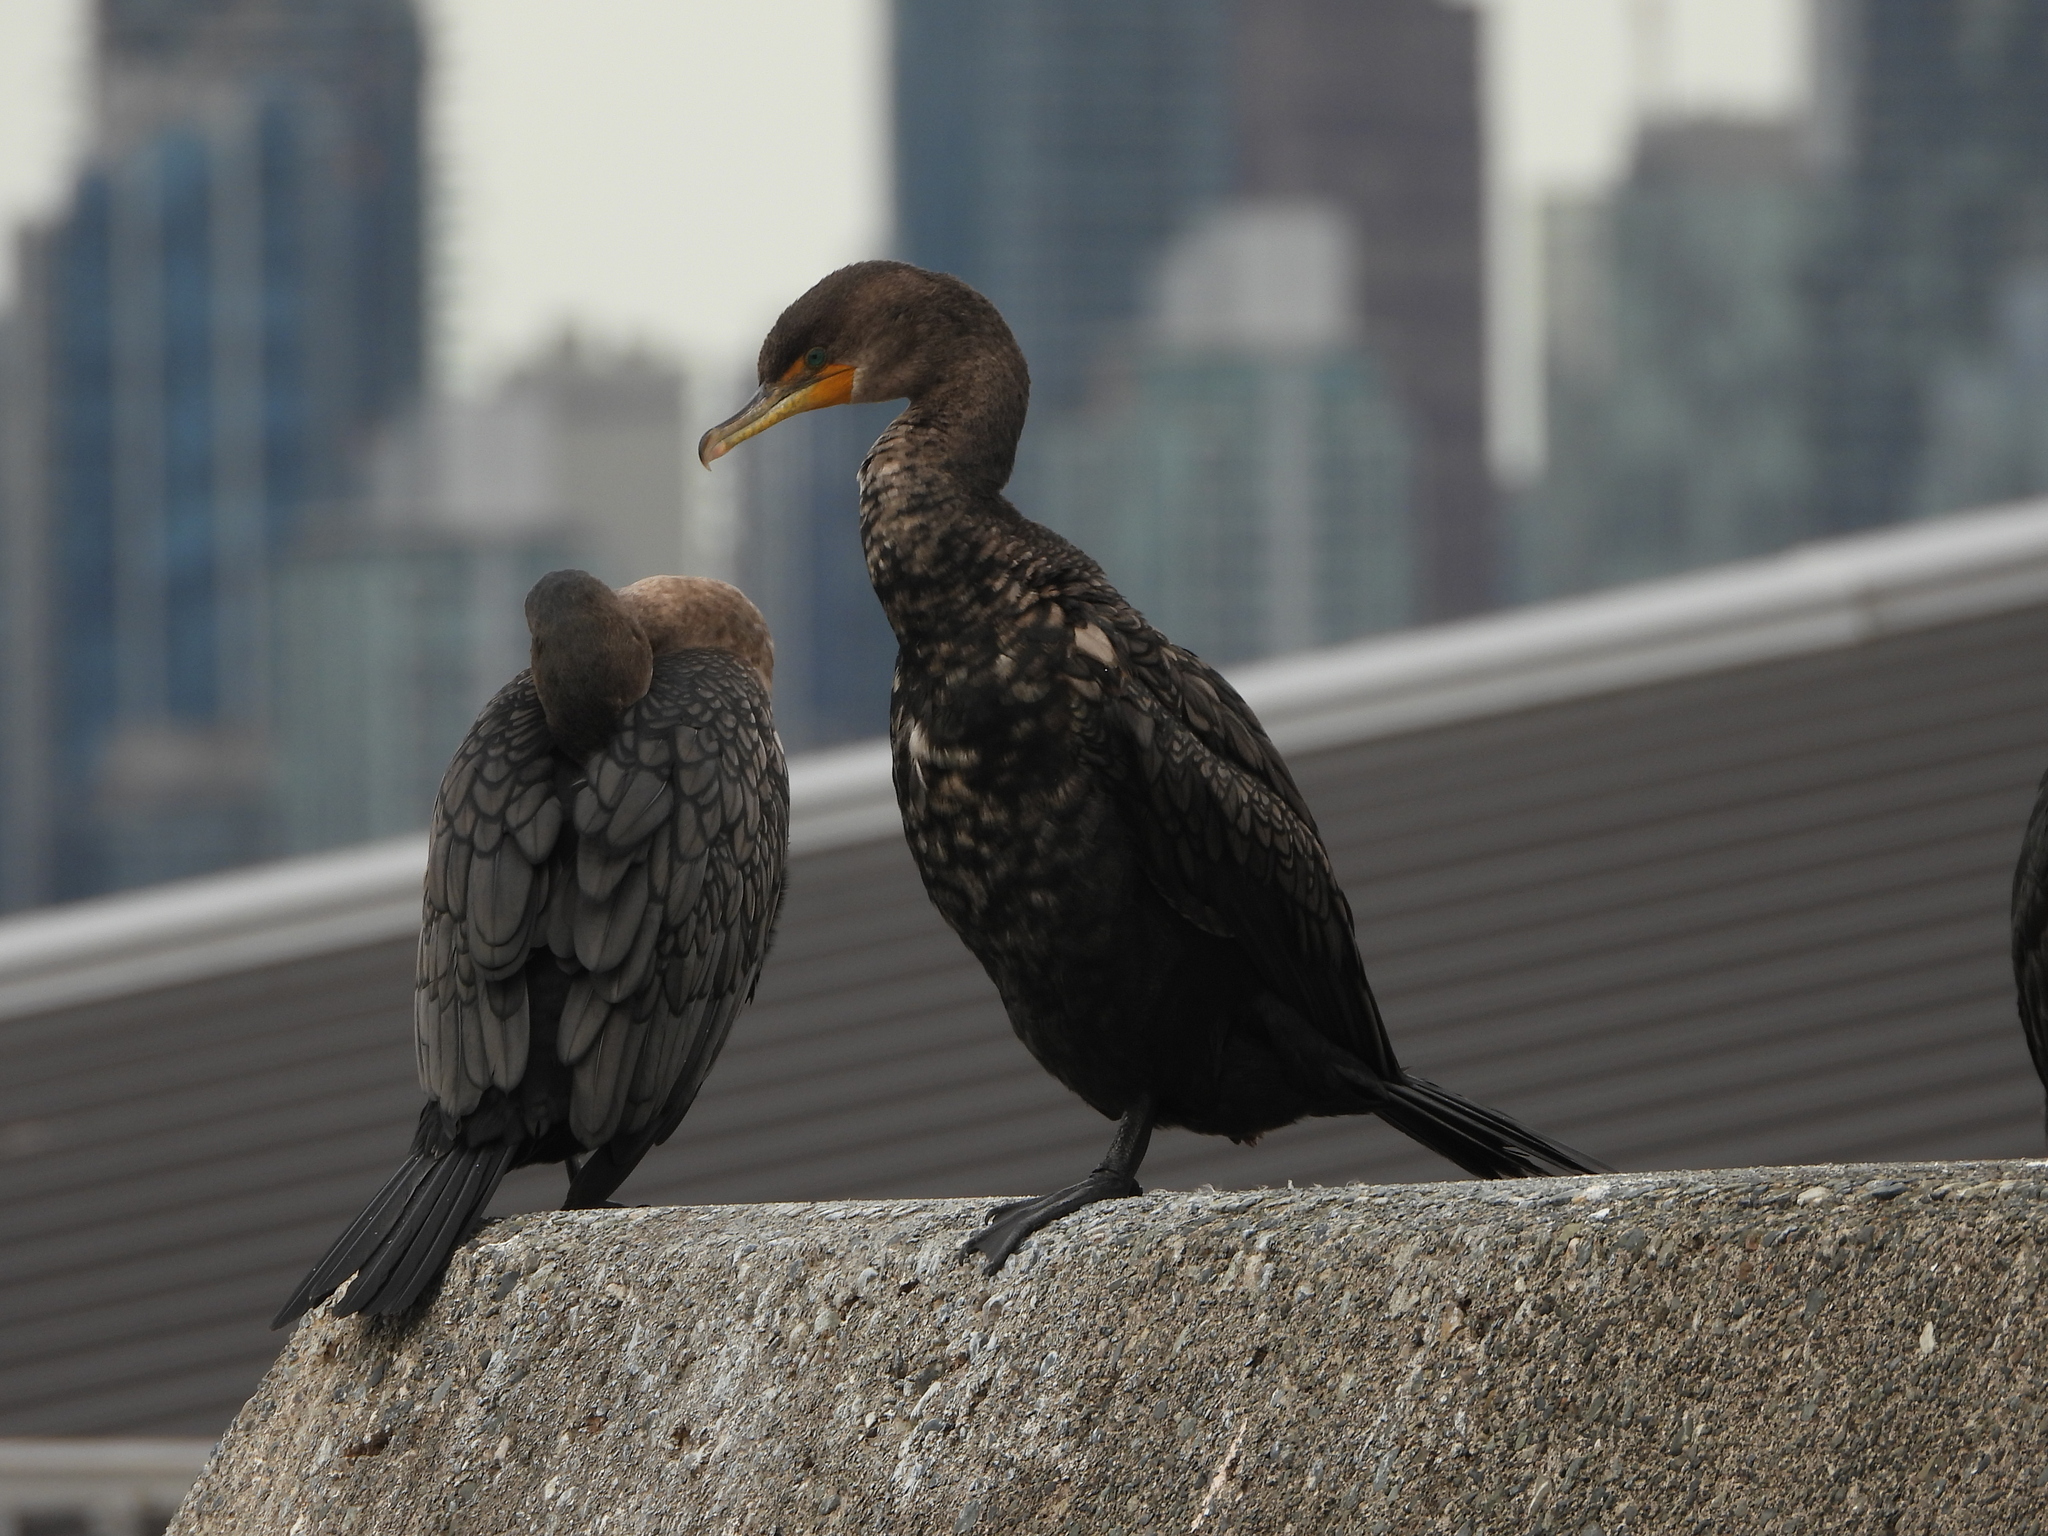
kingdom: Animalia
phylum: Chordata
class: Aves
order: Suliformes
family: Phalacrocoracidae
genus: Phalacrocorax
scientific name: Phalacrocorax auritus
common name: Double-crested cormorant
